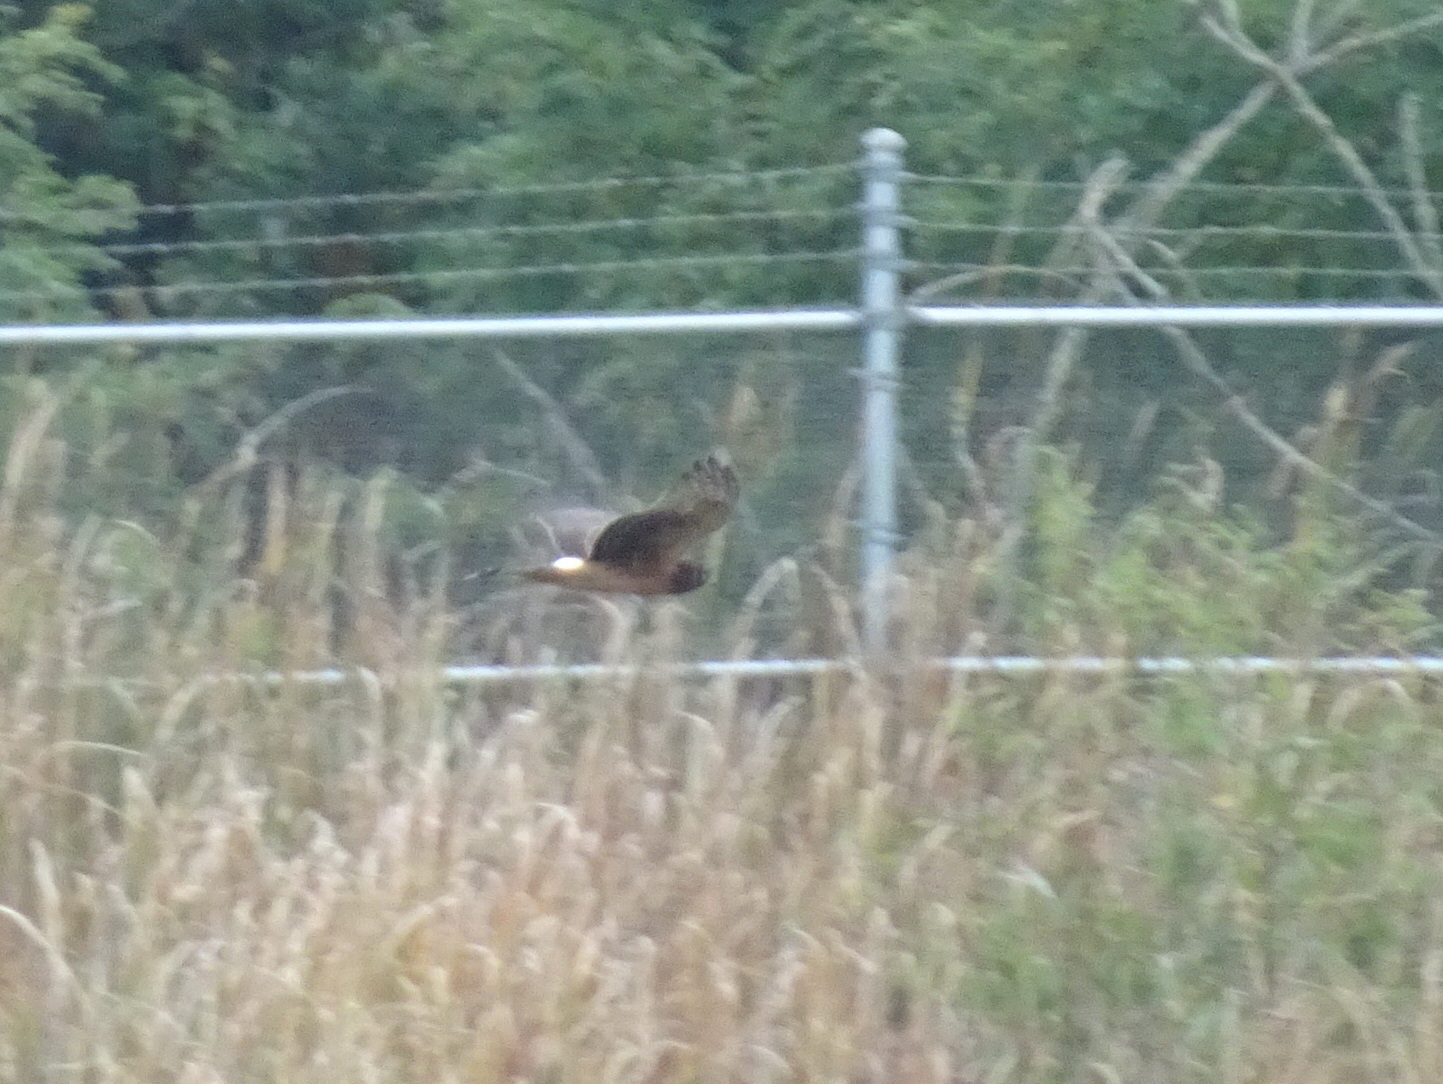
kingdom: Animalia
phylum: Chordata
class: Aves
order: Accipitriformes
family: Accipitridae
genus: Circus
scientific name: Circus cyaneus
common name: Hen harrier
